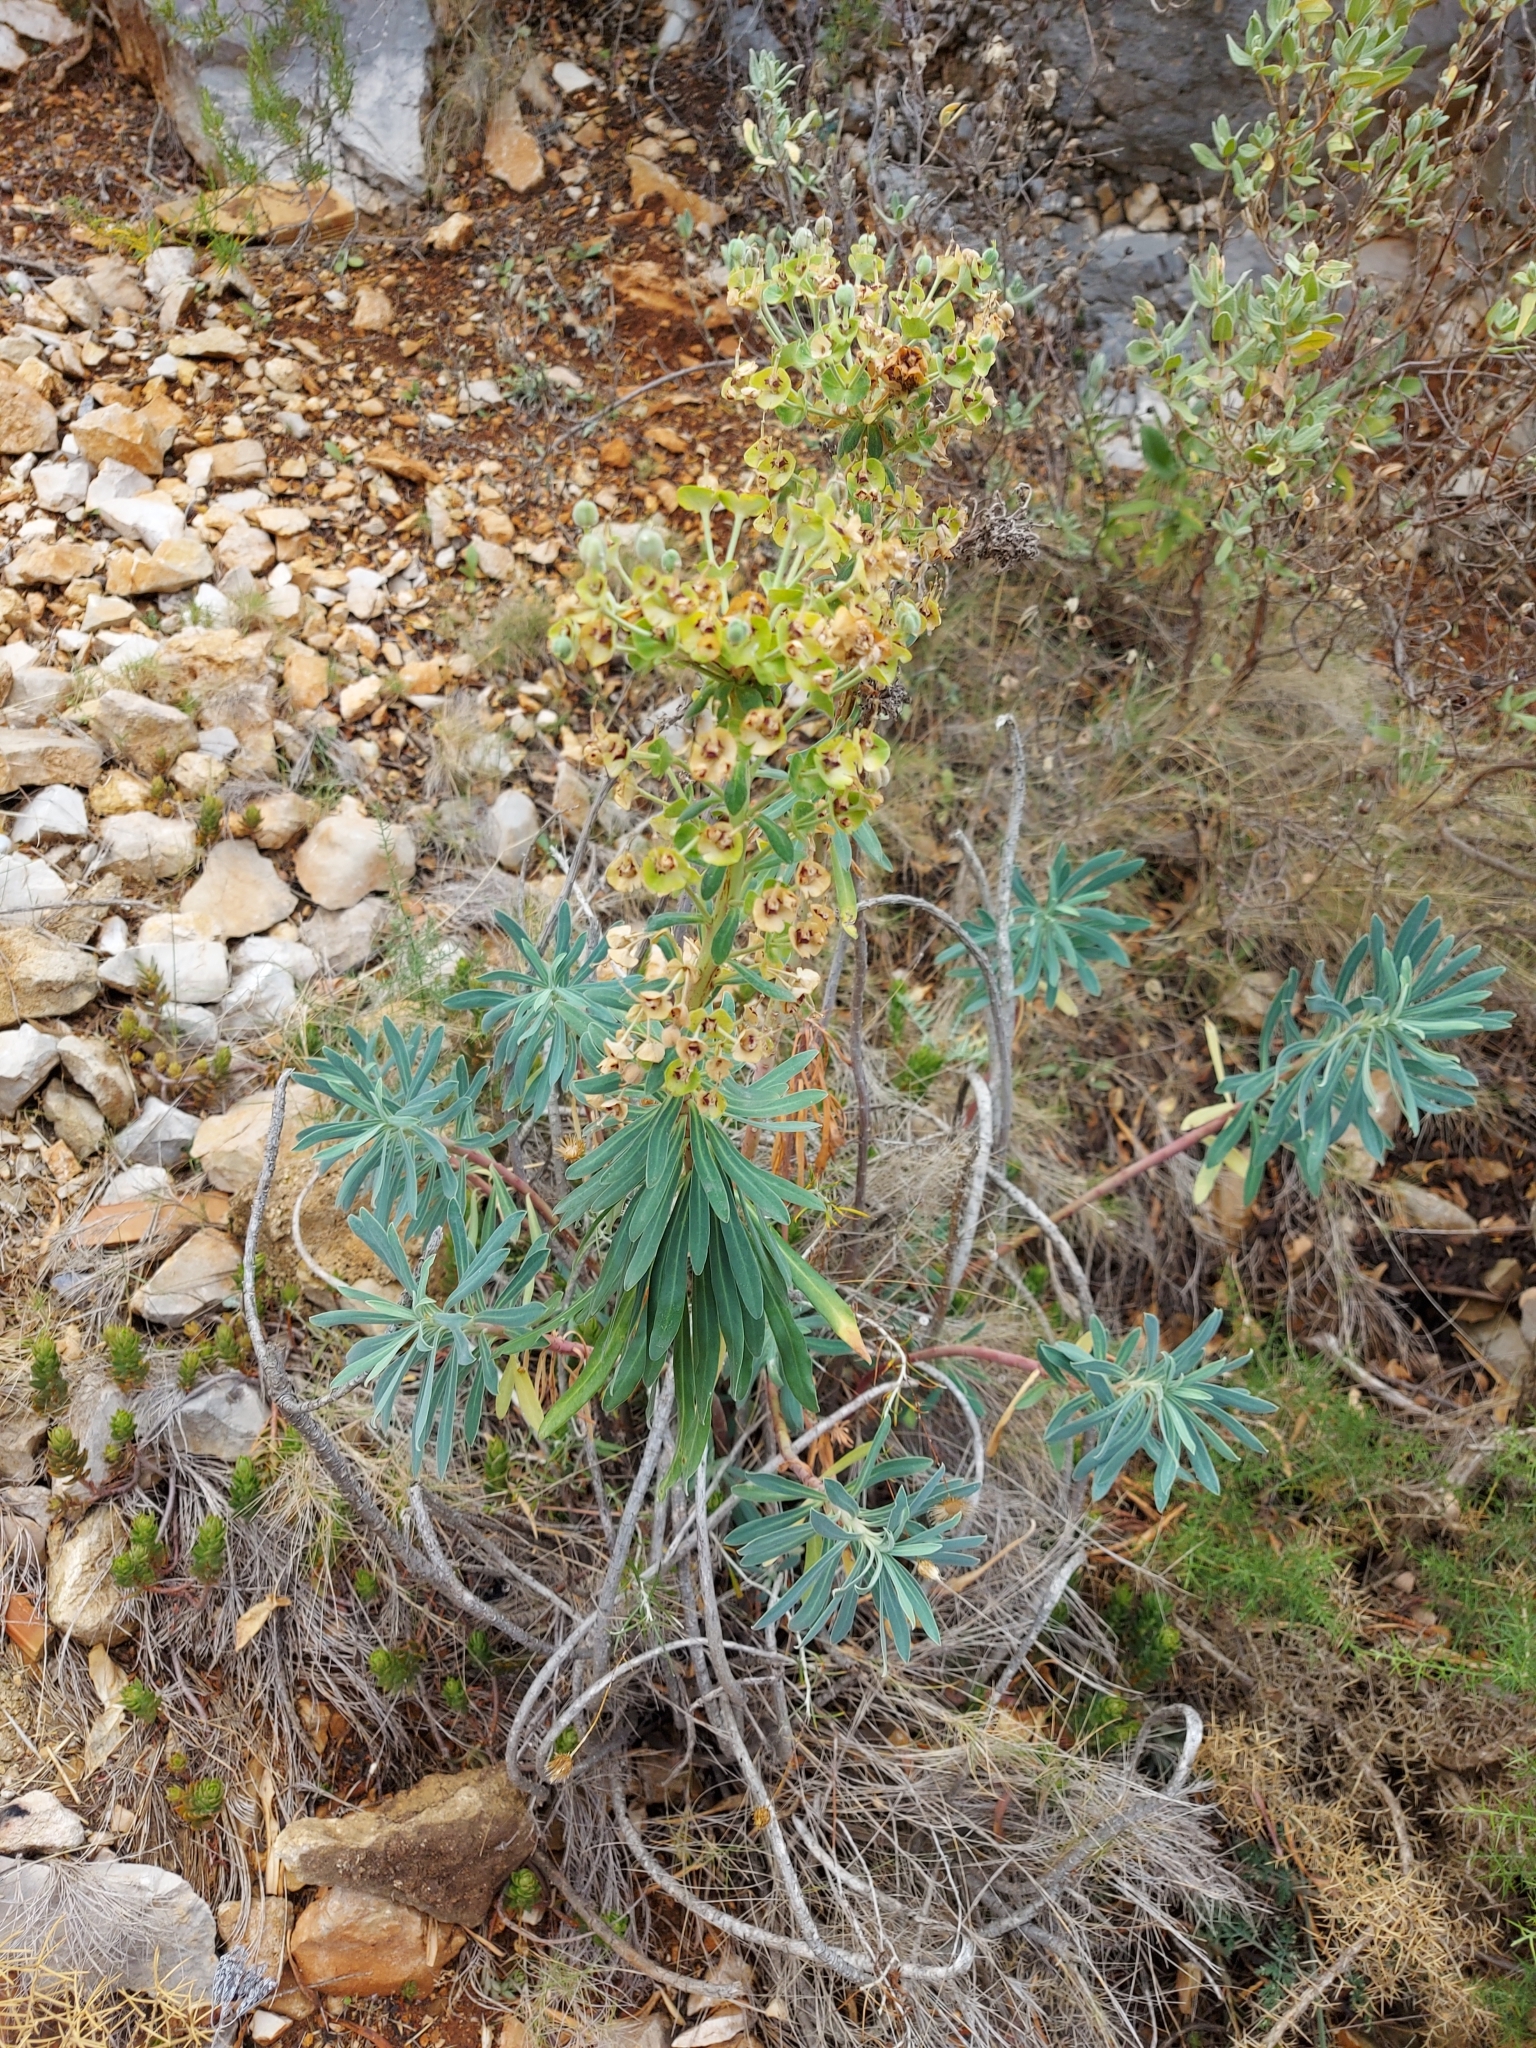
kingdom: Plantae
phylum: Tracheophyta
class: Magnoliopsida
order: Malpighiales
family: Euphorbiaceae
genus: Euphorbia
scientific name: Euphorbia characias
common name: Mediterranean spurge
